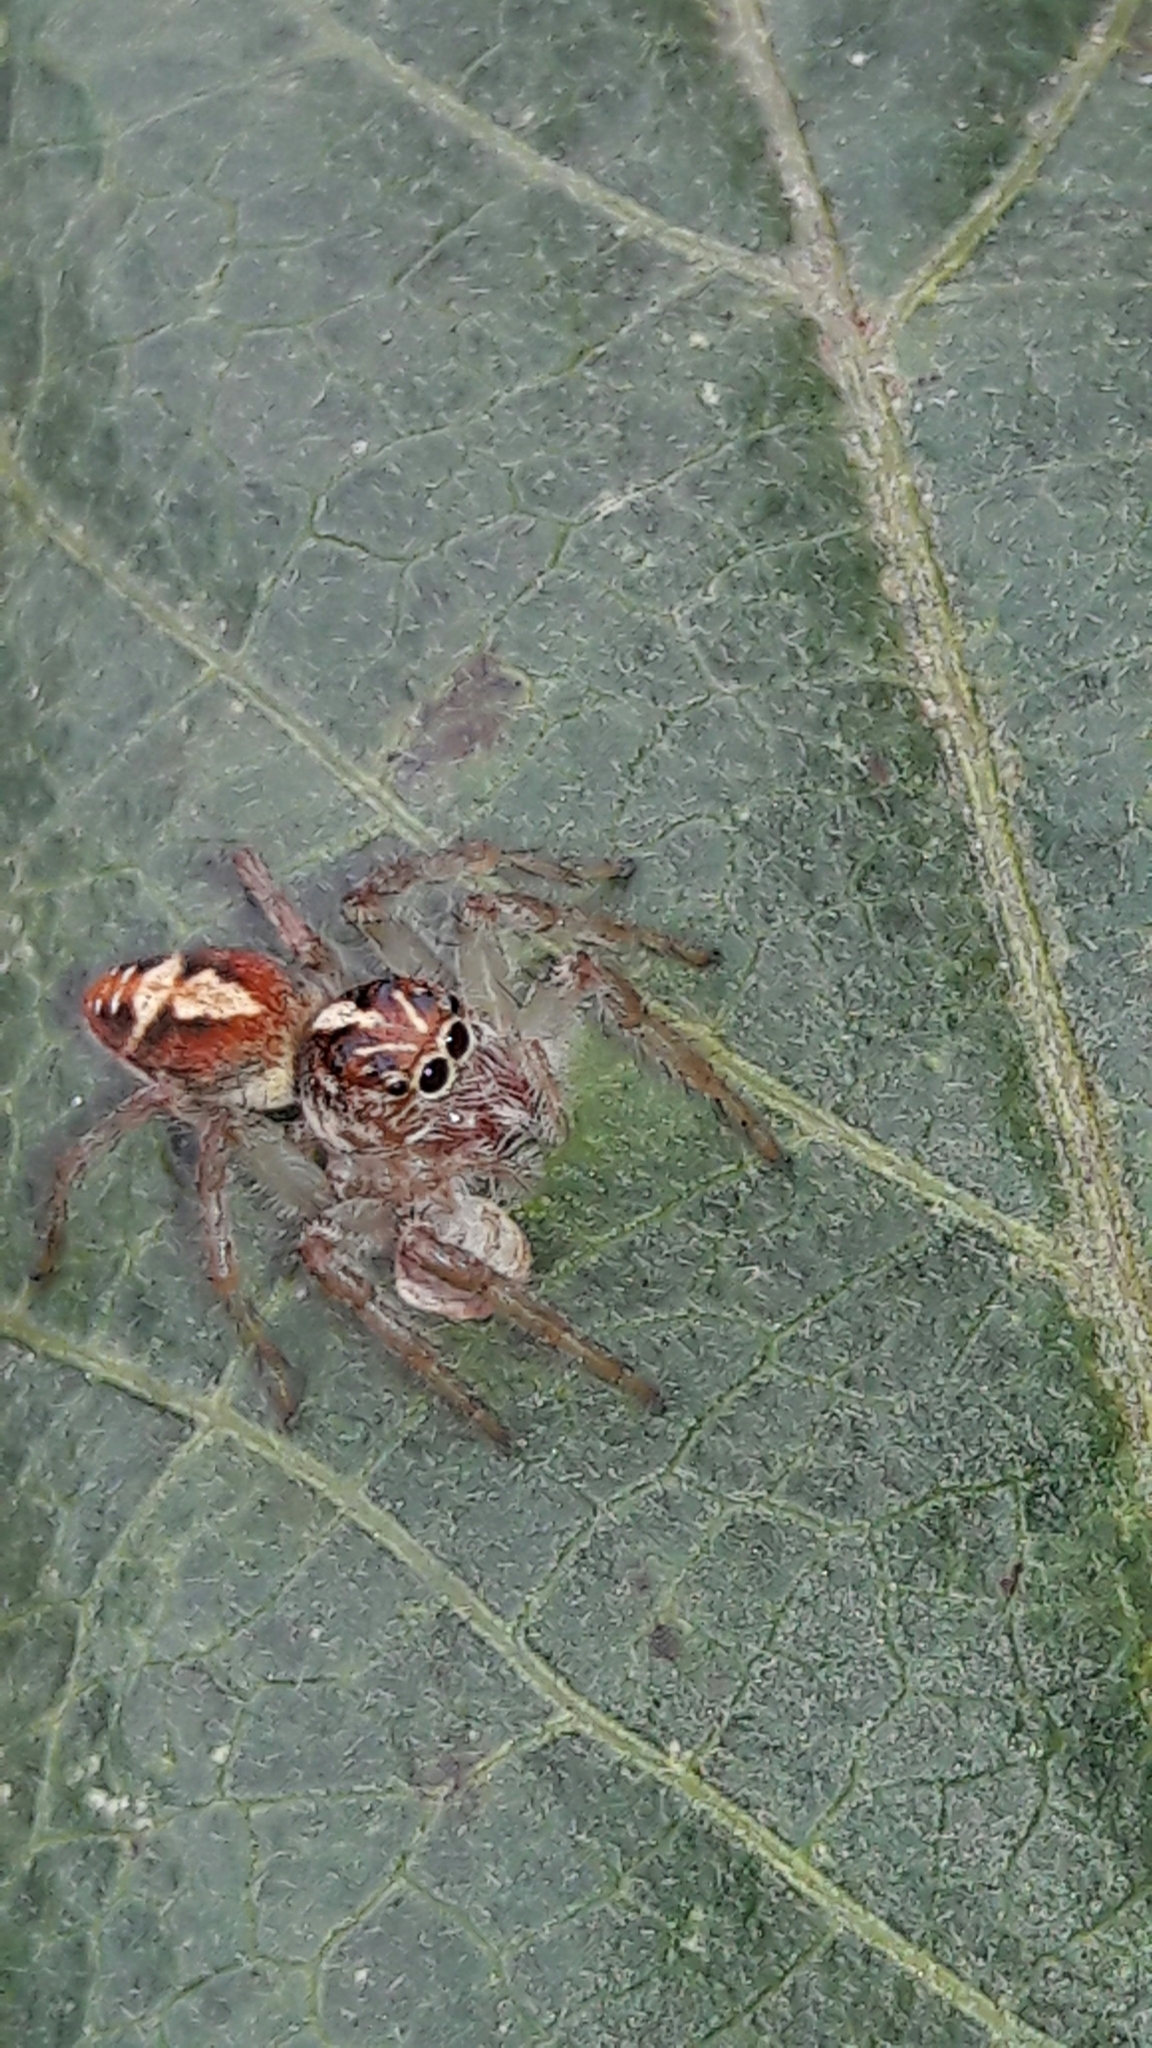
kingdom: Animalia
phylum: Arthropoda
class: Arachnida
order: Araneae
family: Salticidae
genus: Frigga
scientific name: Frigga quintensis
